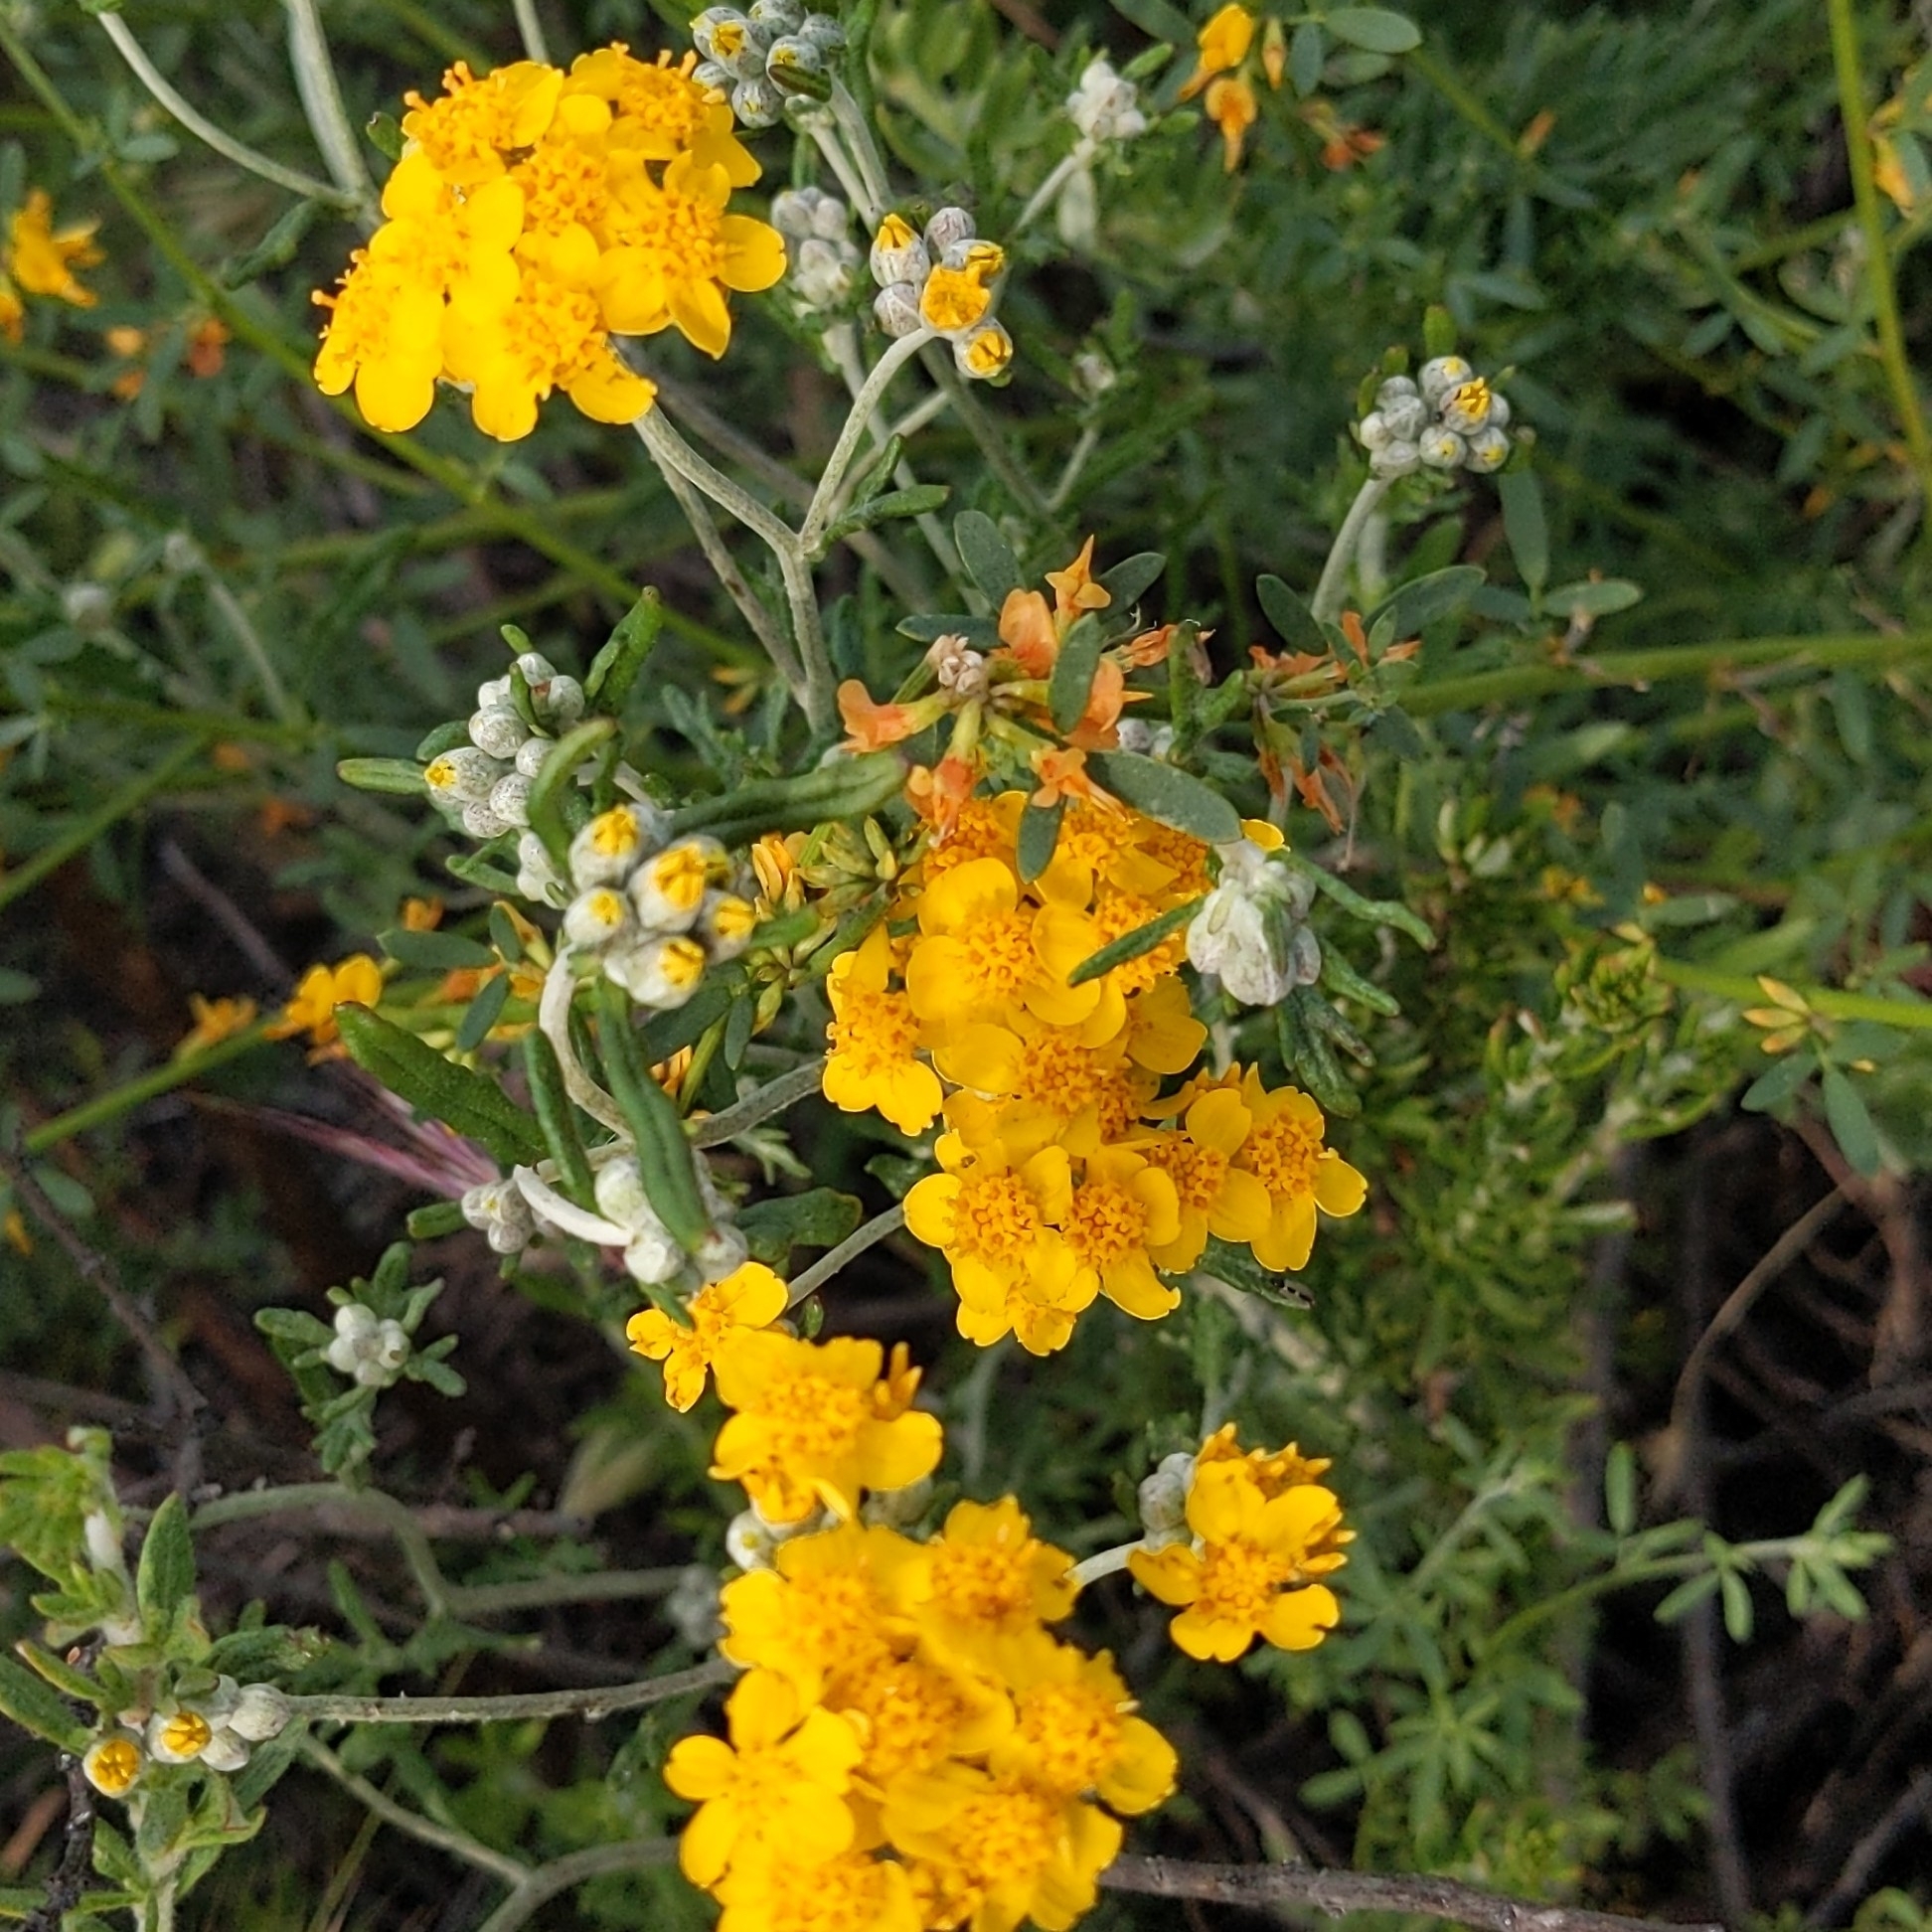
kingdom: Plantae
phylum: Tracheophyta
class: Magnoliopsida
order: Asterales
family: Asteraceae
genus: Eriophyllum
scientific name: Eriophyllum confertiflorum
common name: Golden-yarrow
